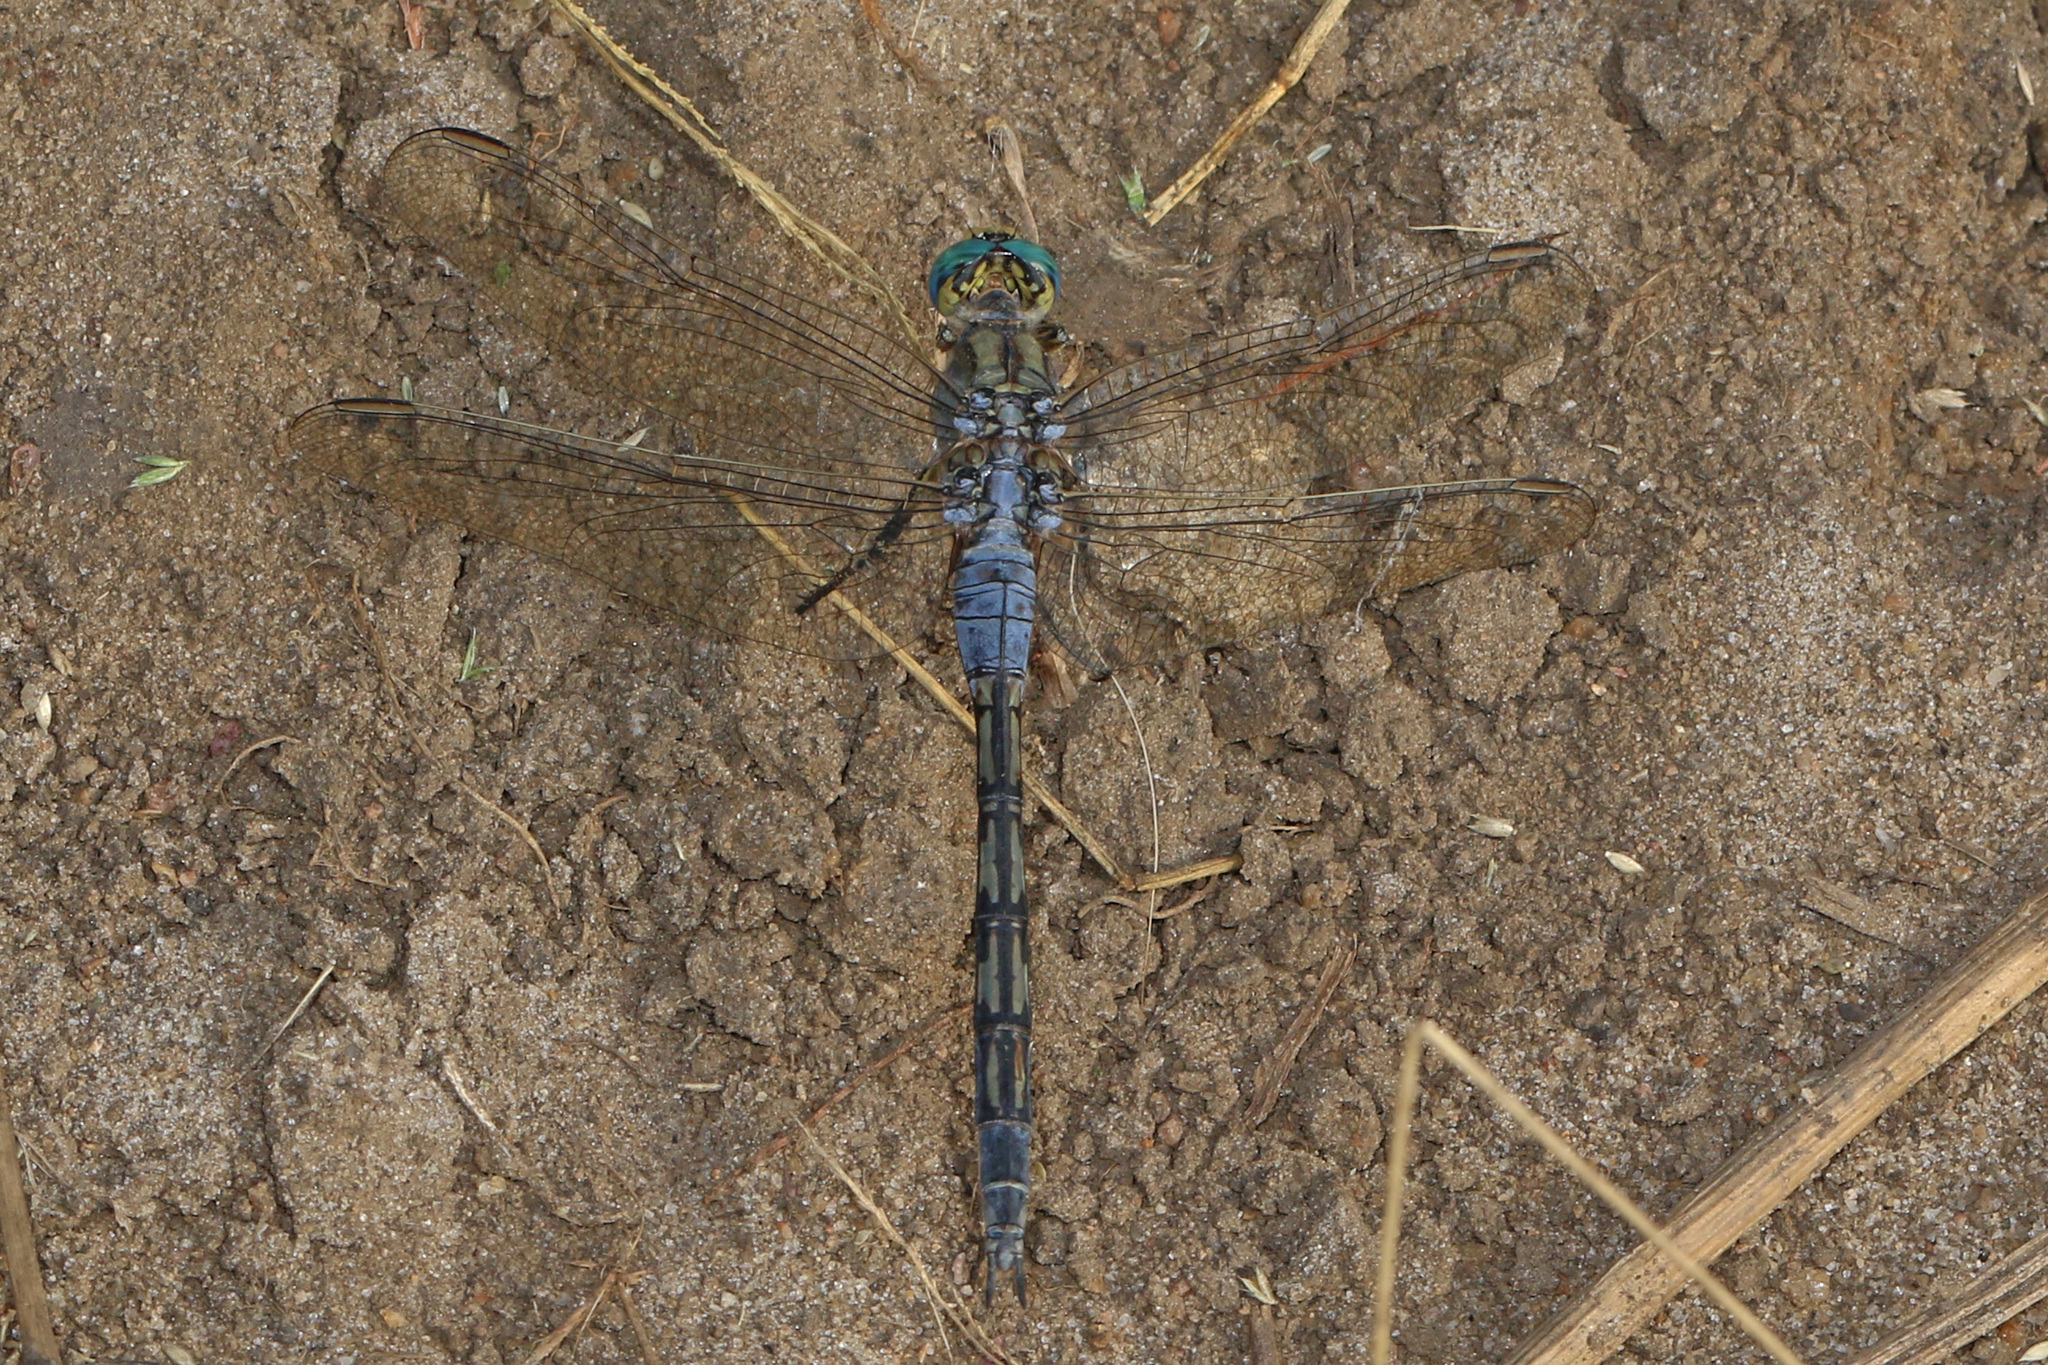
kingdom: Animalia
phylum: Arthropoda
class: Insecta
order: Odonata
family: Libellulidae
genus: Orthetrum
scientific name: Orthetrum trinacria
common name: Long skimmer
